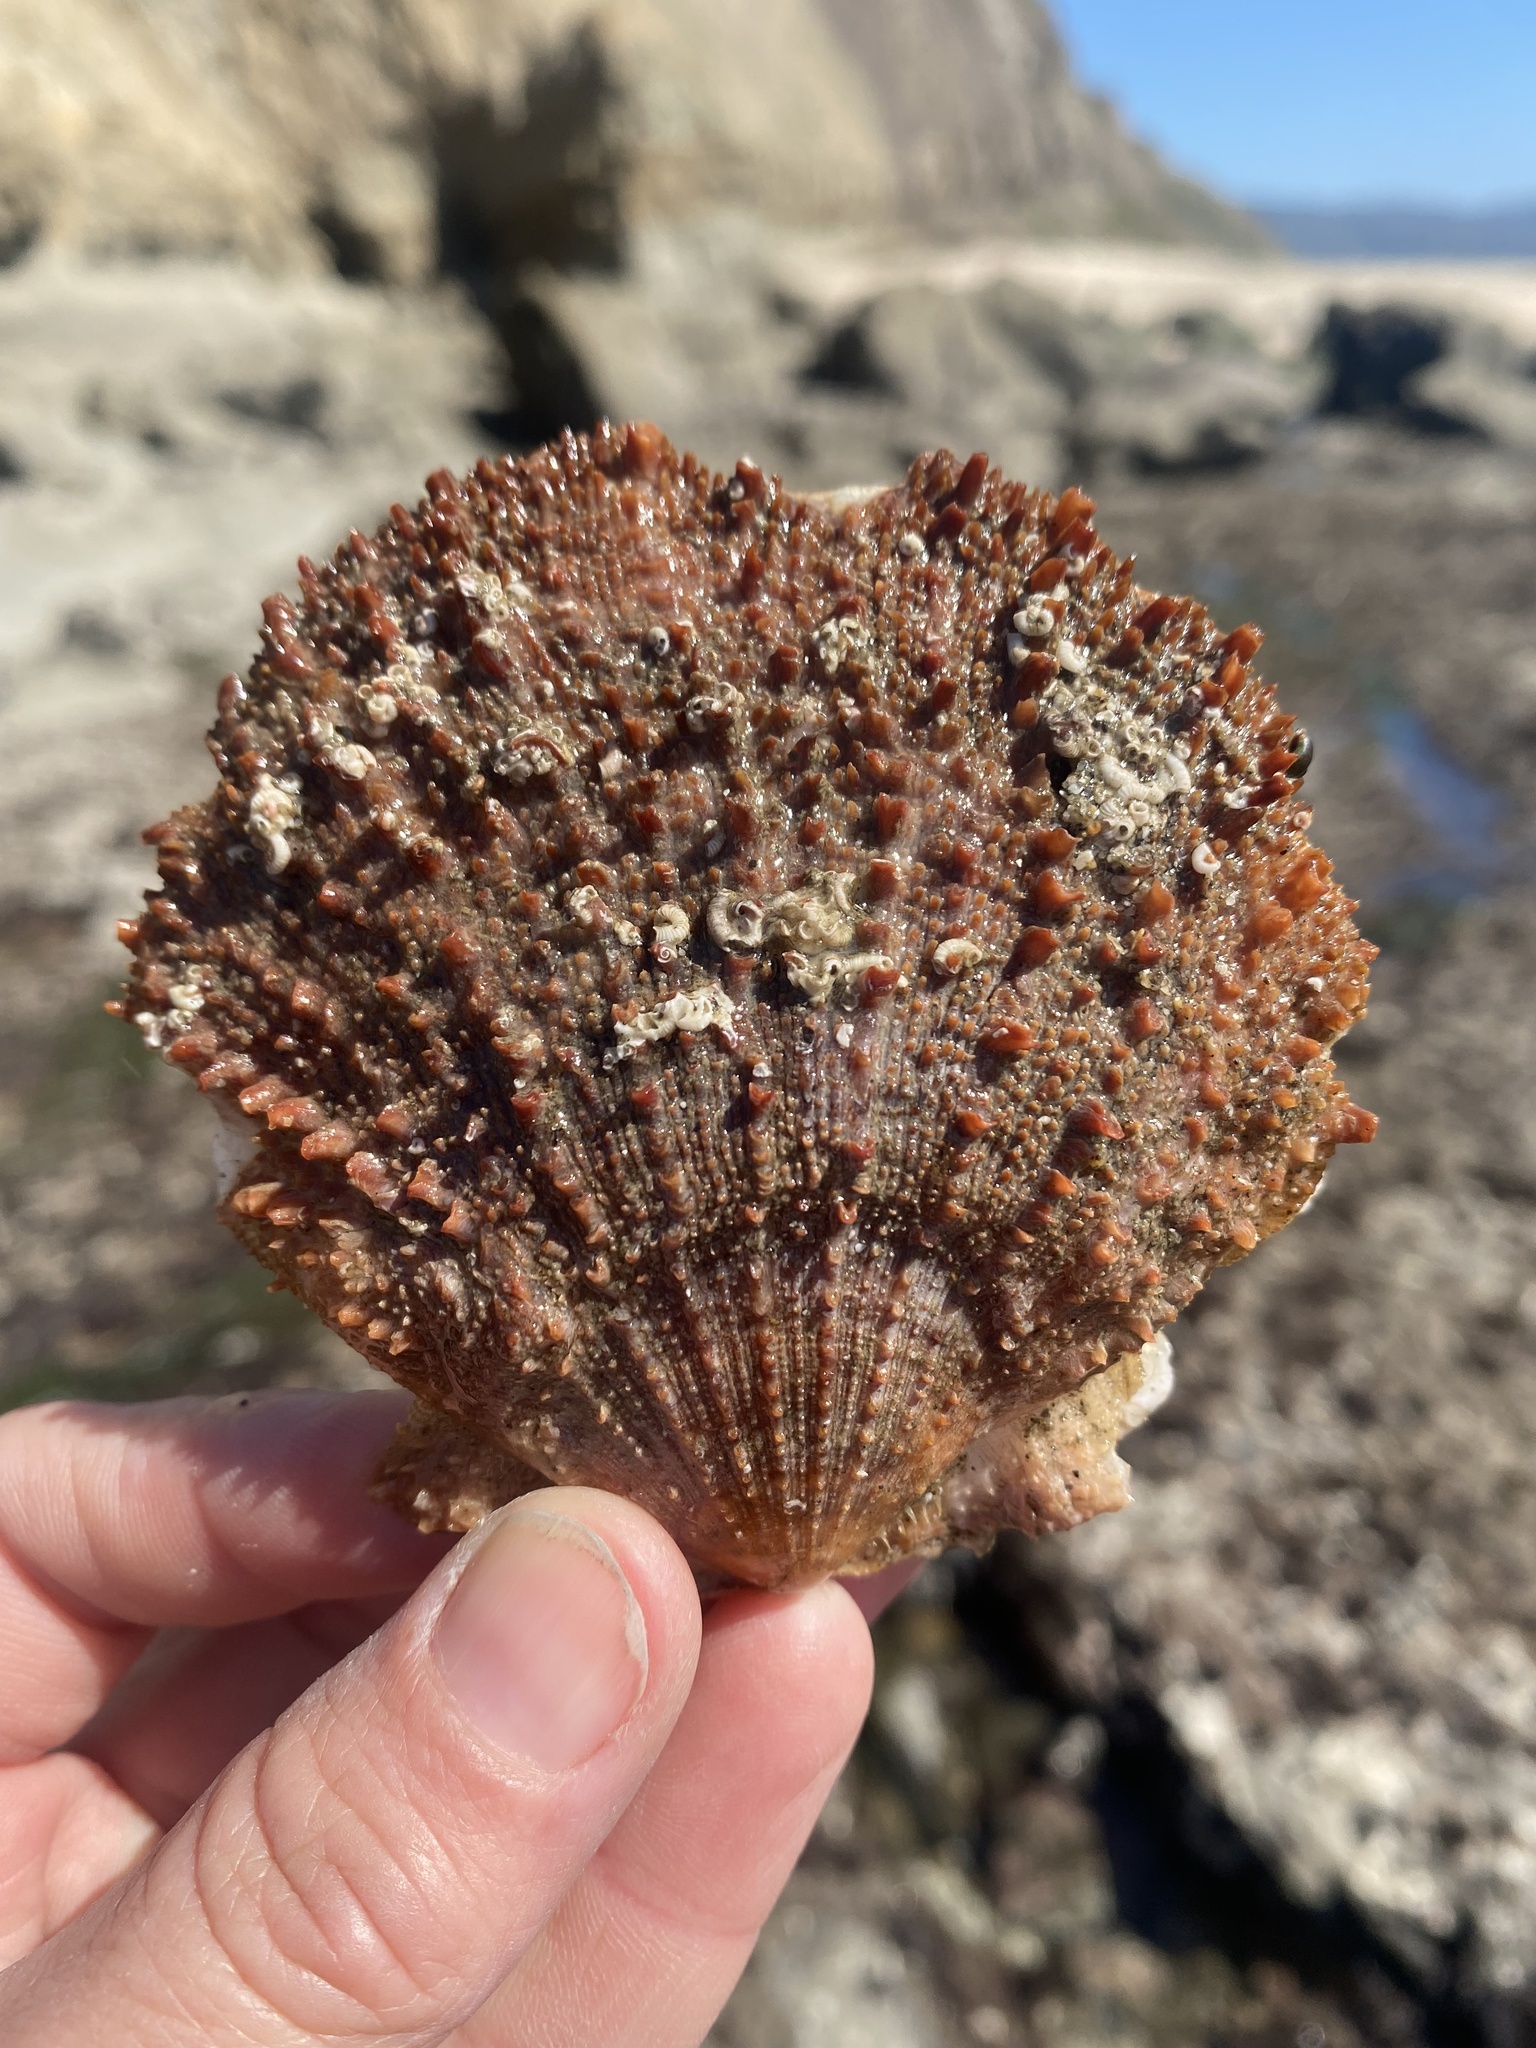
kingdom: Animalia
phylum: Mollusca
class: Bivalvia
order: Pectinida
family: Pectinidae
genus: Crassadoma
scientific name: Crassadoma gigantea
